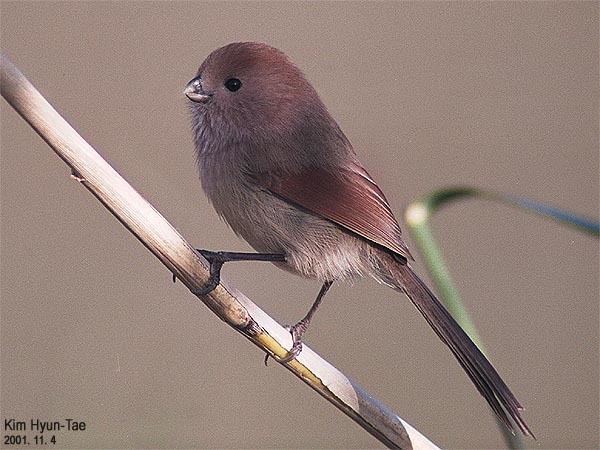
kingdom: Animalia
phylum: Chordata
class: Aves
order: Passeriformes
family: Sylviidae
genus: Sinosuthora
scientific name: Sinosuthora webbiana
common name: Vinous-throated parrotbill
